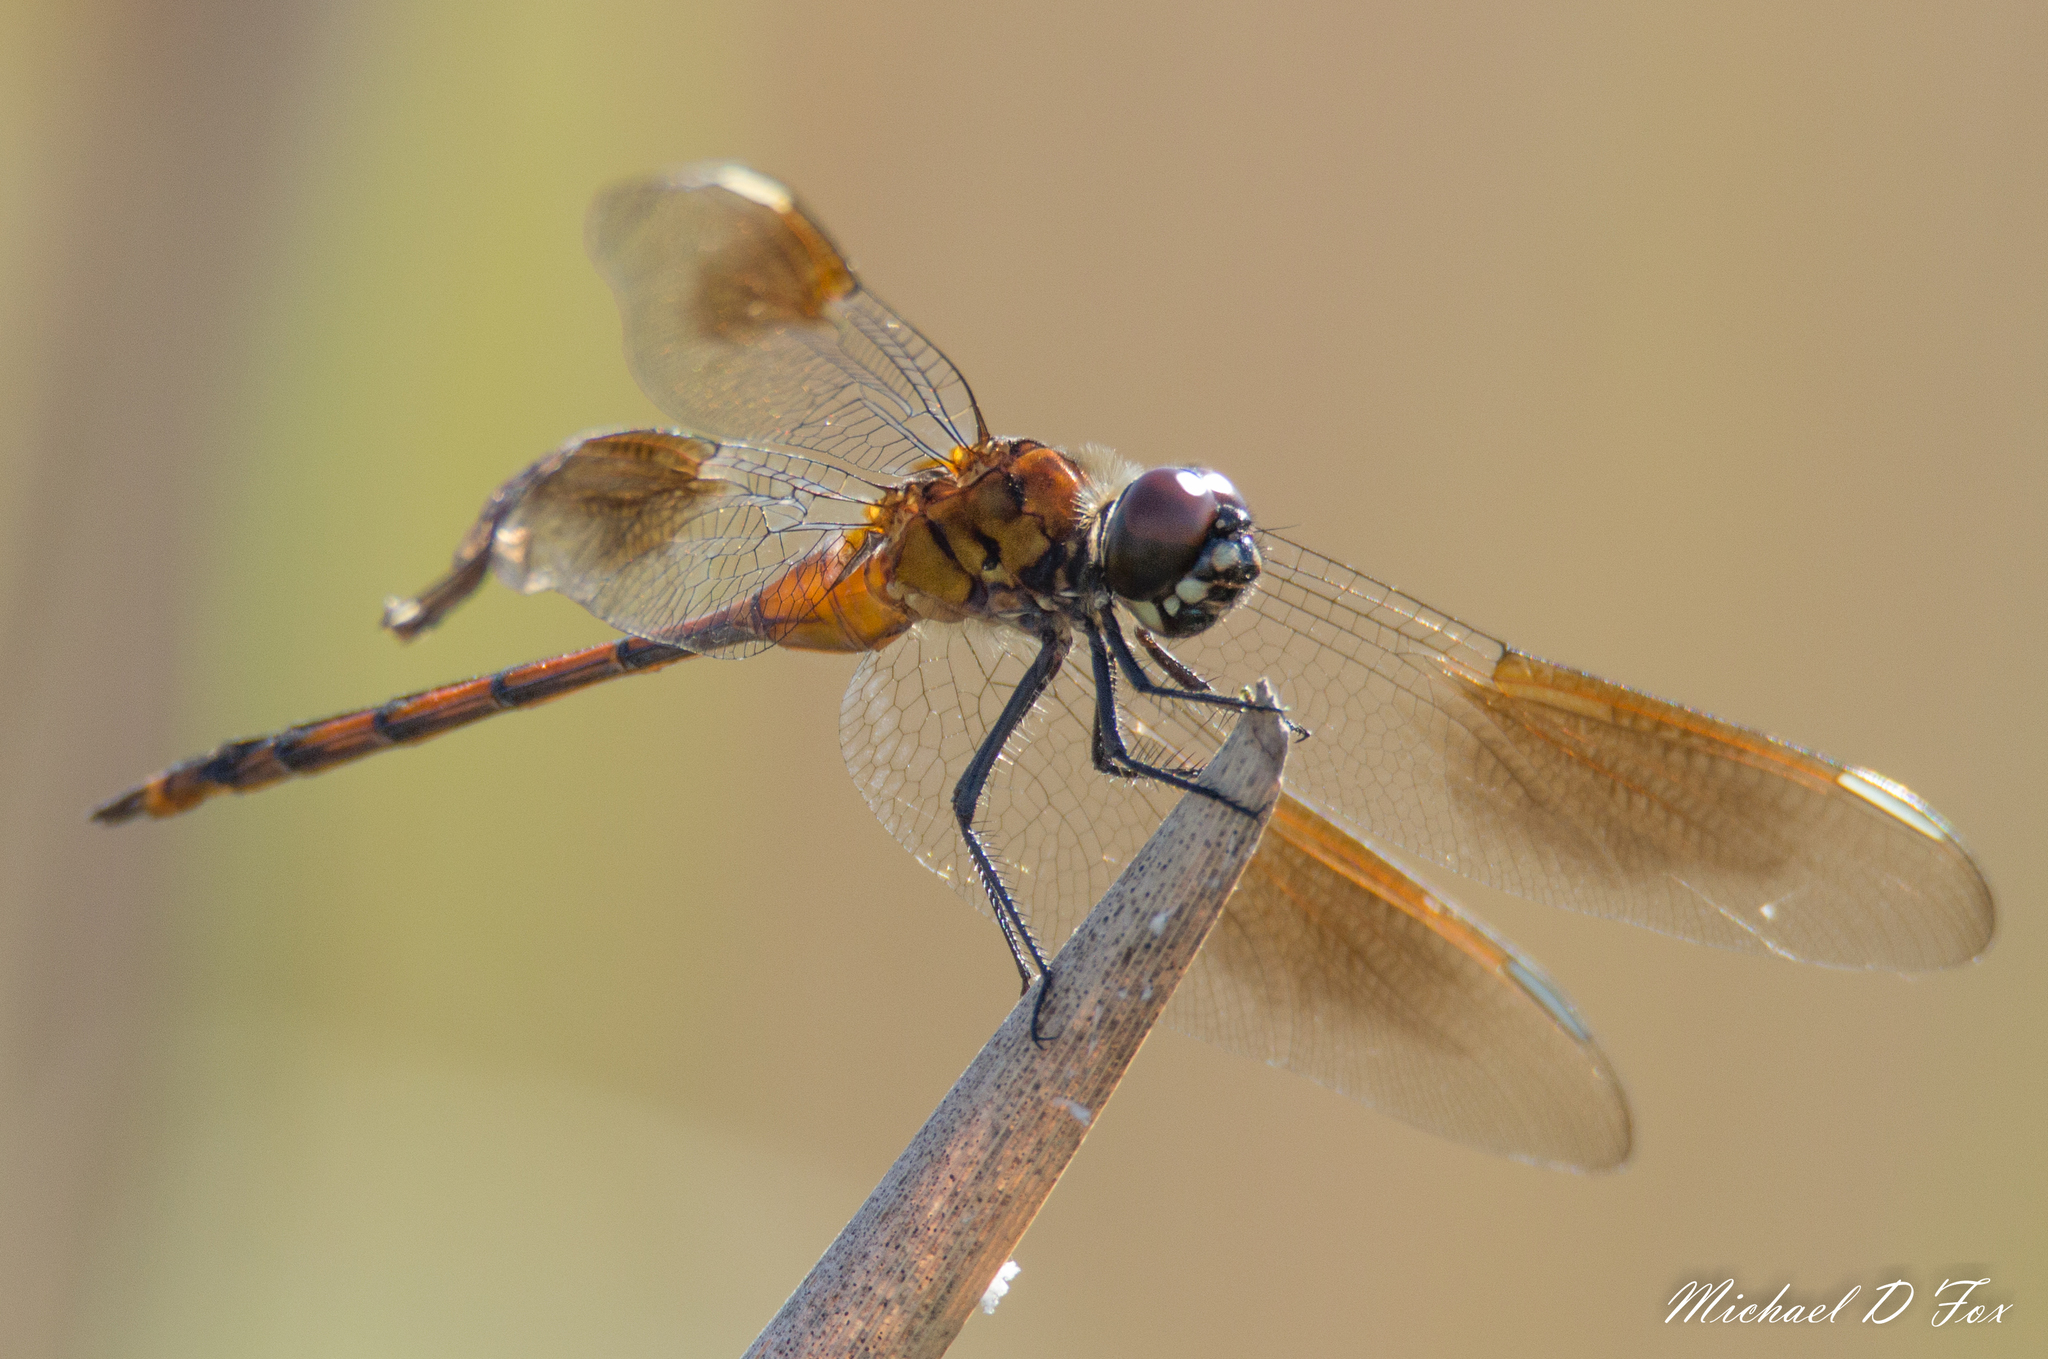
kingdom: Animalia
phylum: Arthropoda
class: Insecta
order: Odonata
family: Libellulidae
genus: Brachymesia
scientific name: Brachymesia gravida
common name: Four-spotted pennant
